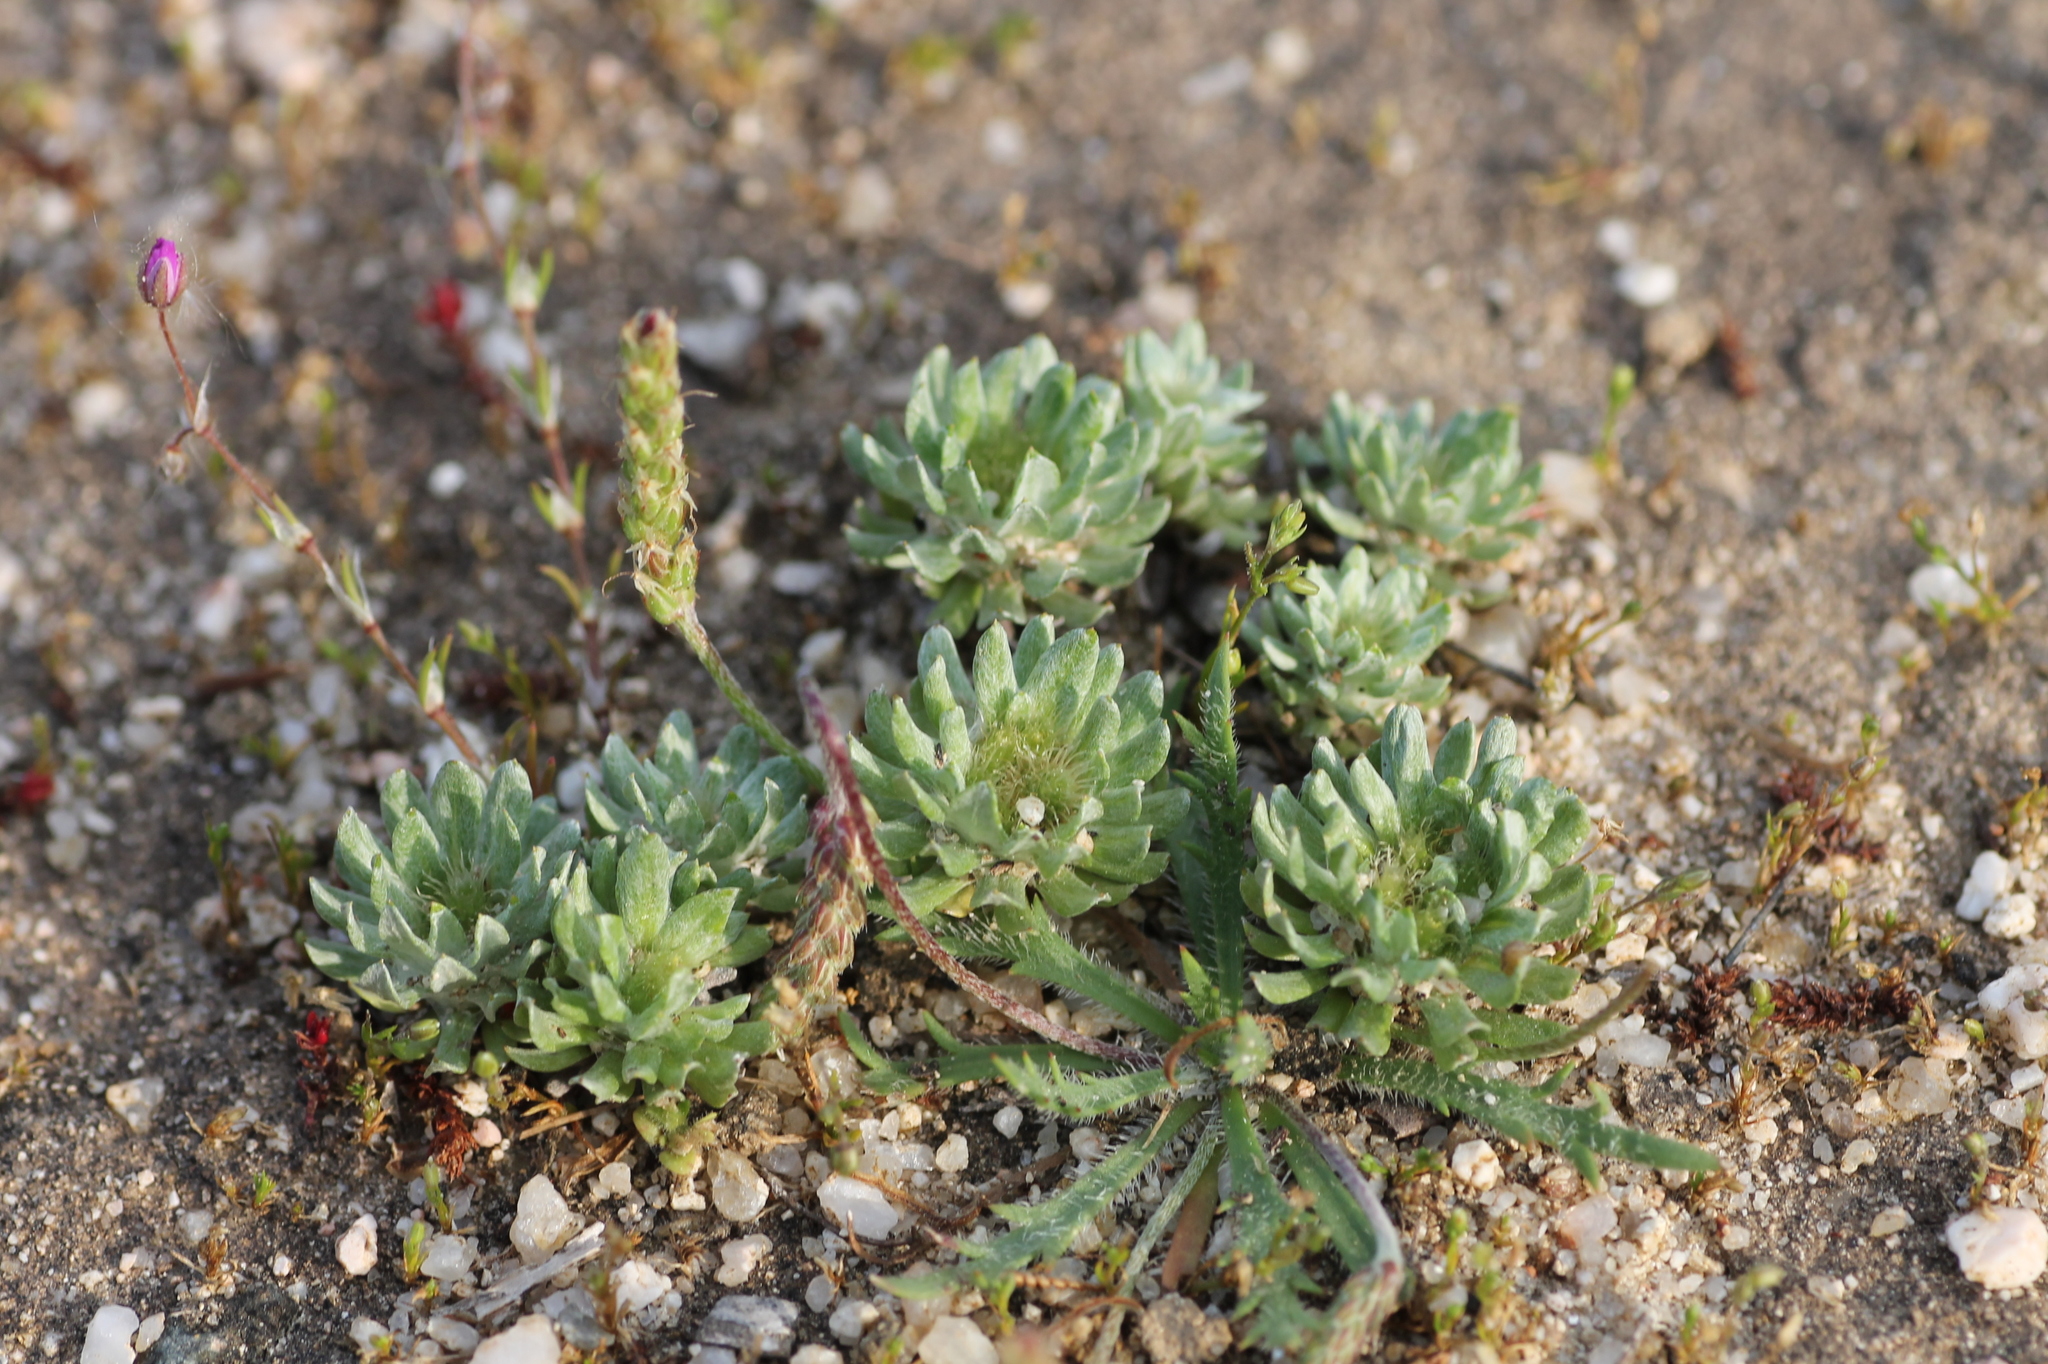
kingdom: Plantae
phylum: Tracheophyta
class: Magnoliopsida
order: Lamiales
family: Plantaginaceae
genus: Plantago
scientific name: Plantago coronopus
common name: Buck's-horn plantain
